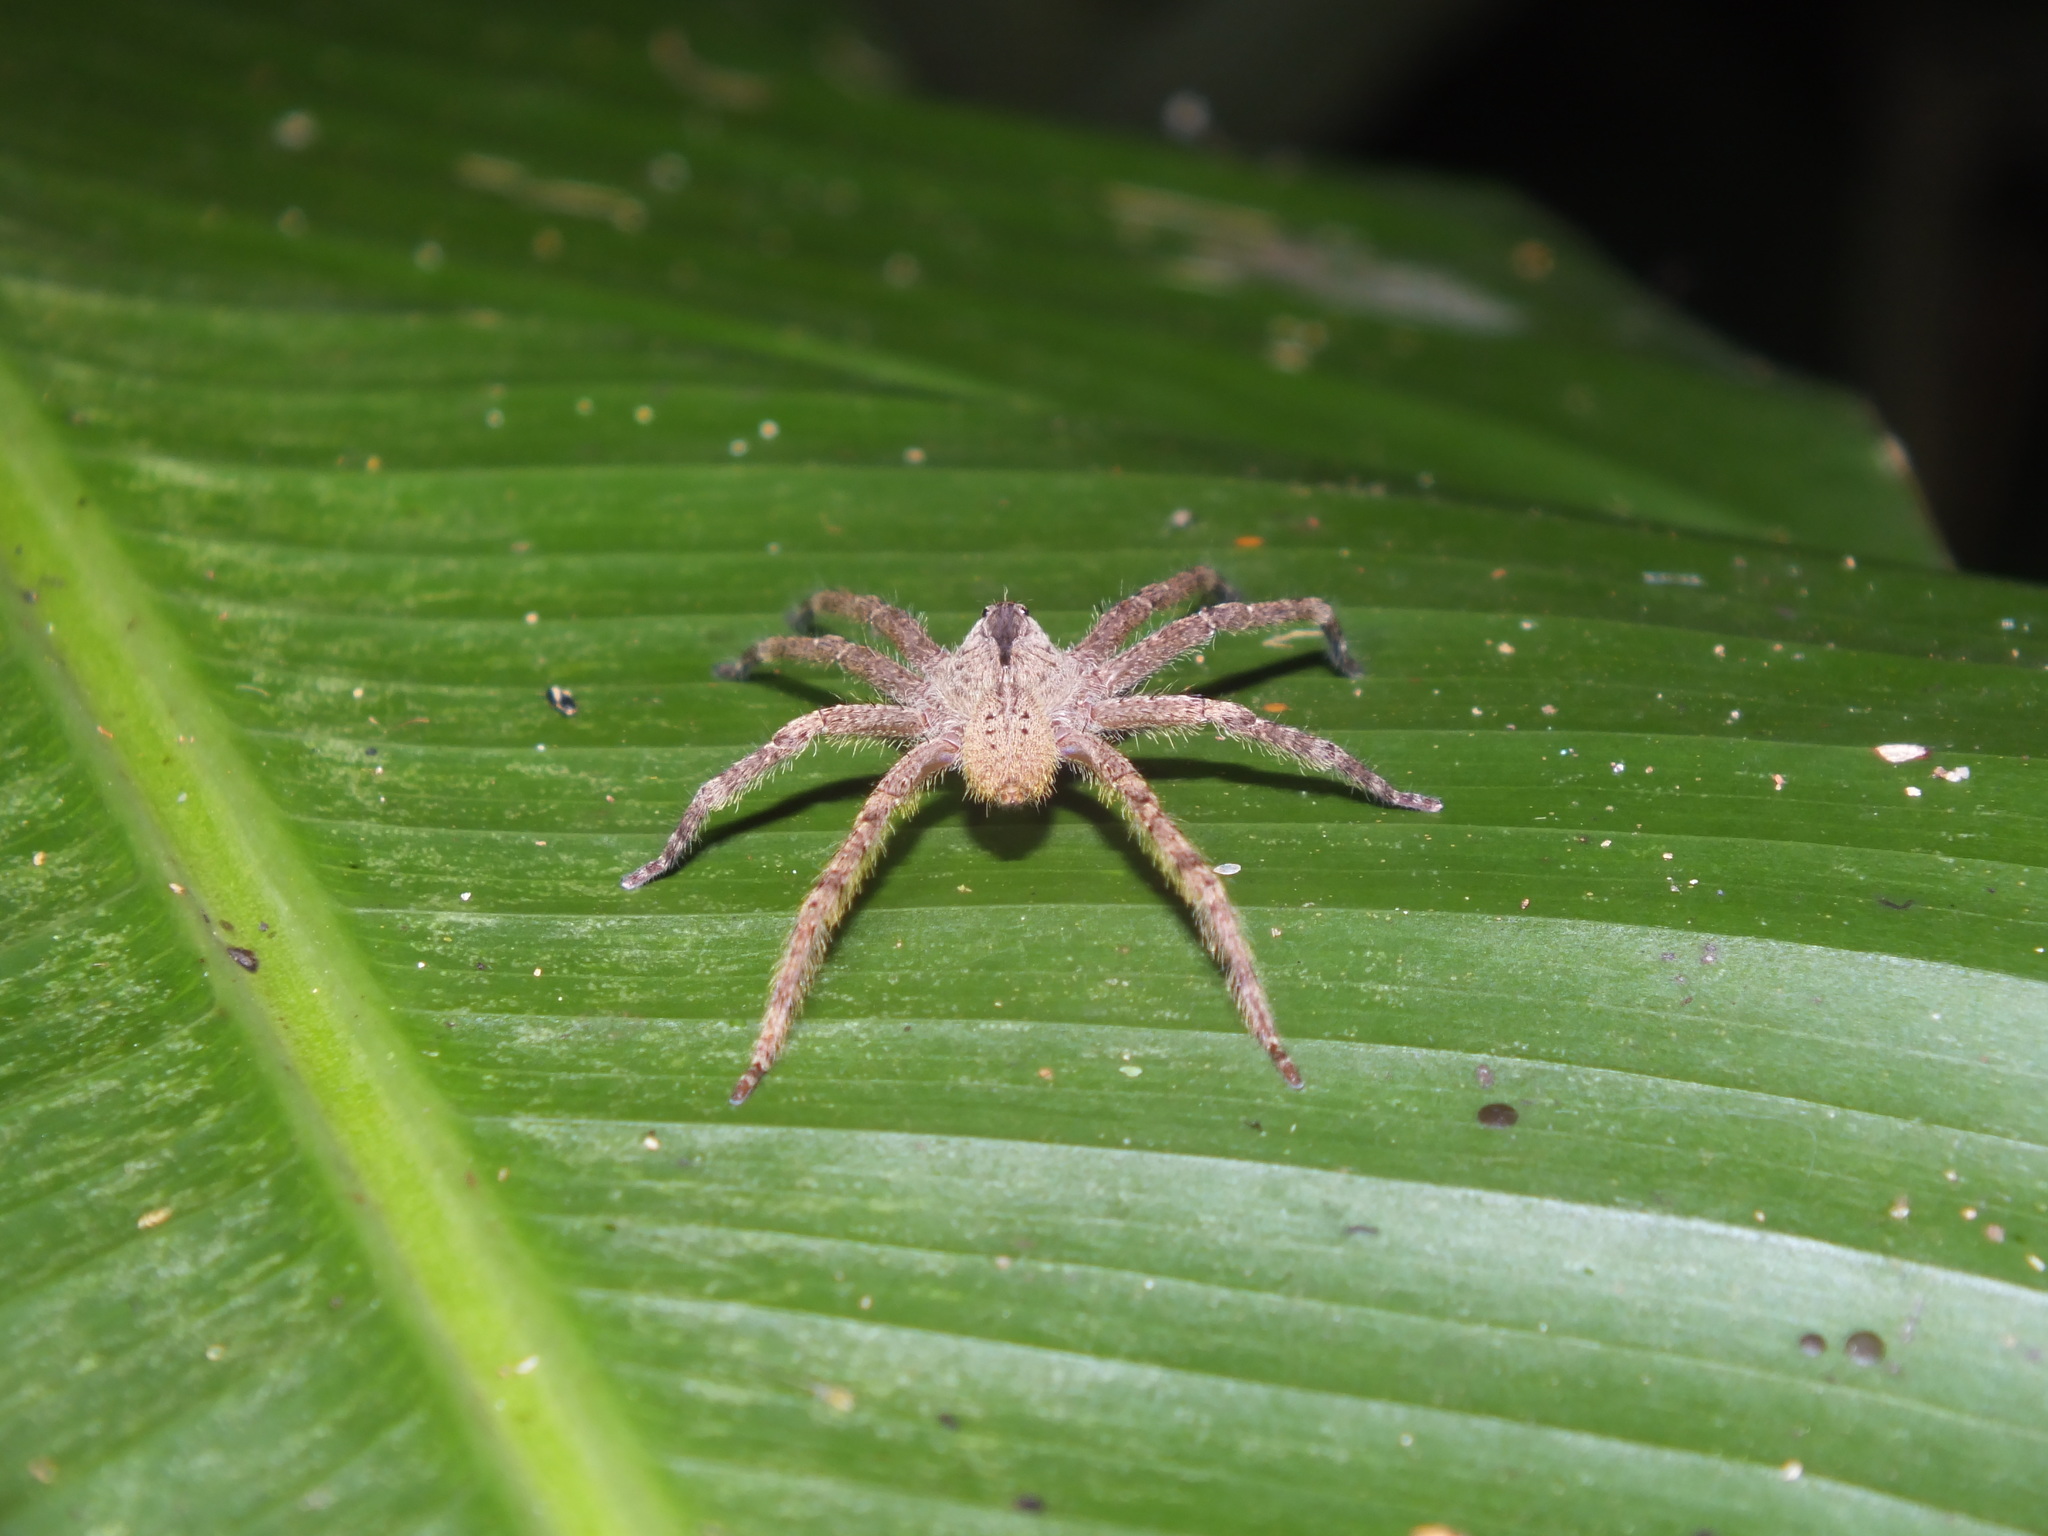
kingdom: Animalia
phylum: Arthropoda
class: Arachnida
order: Araneae
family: Ctenidae
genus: Phoneutria
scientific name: Phoneutria boliviensis
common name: Wandering spiders
